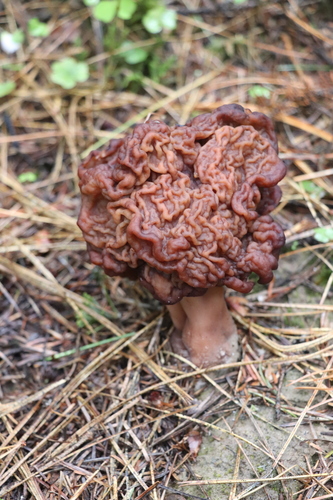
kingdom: Fungi
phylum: Ascomycota
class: Pezizomycetes
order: Pezizales
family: Discinaceae
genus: Gyromitra
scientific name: Gyromitra esculenta
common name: False morel
